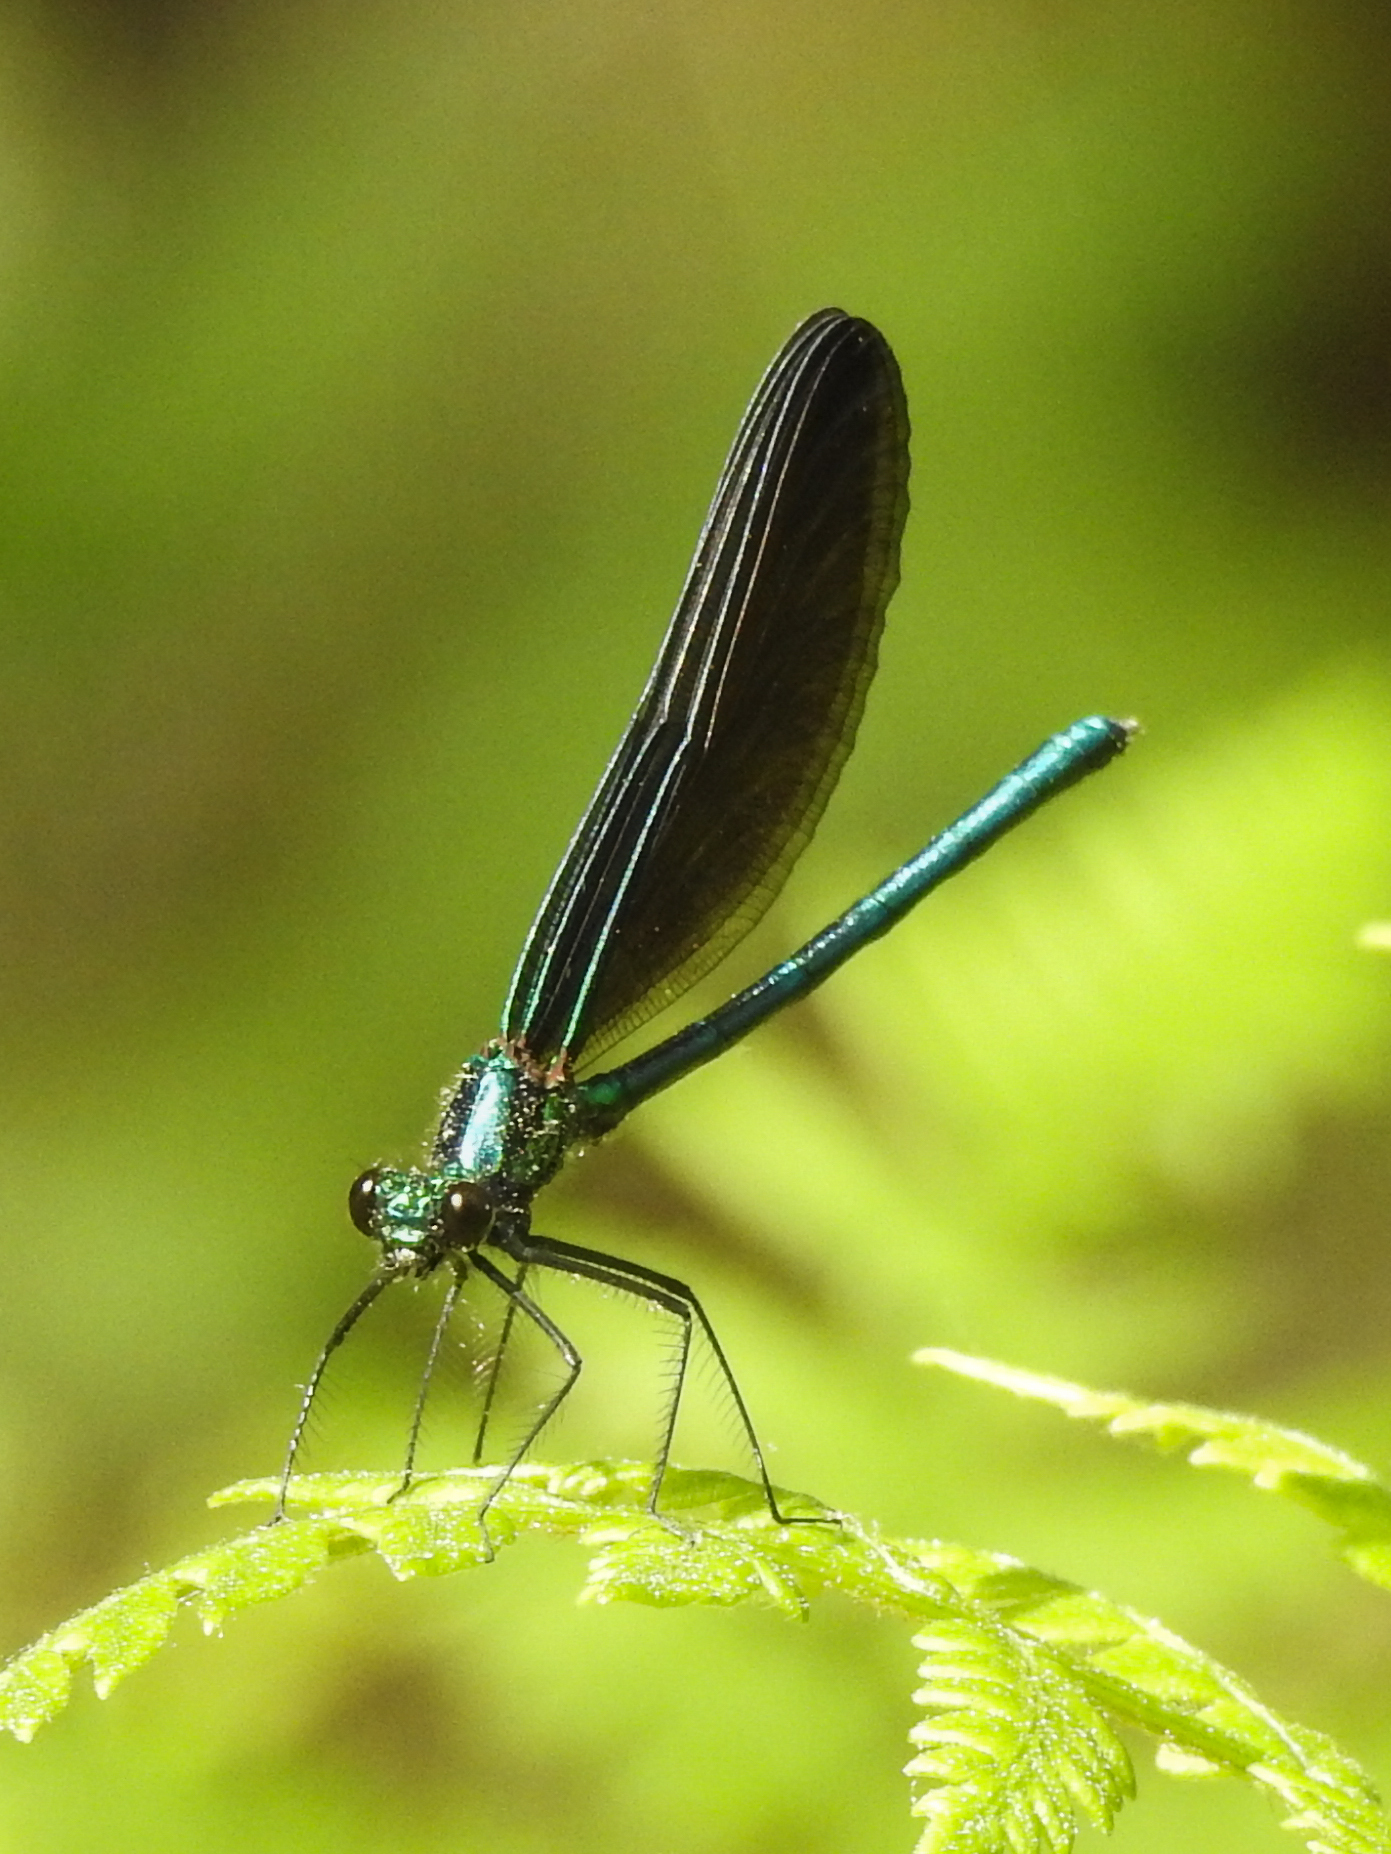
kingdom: Animalia
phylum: Arthropoda
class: Insecta
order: Odonata
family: Calopterygidae
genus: Calopteryx
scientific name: Calopteryx maculata
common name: Ebony jewelwing
